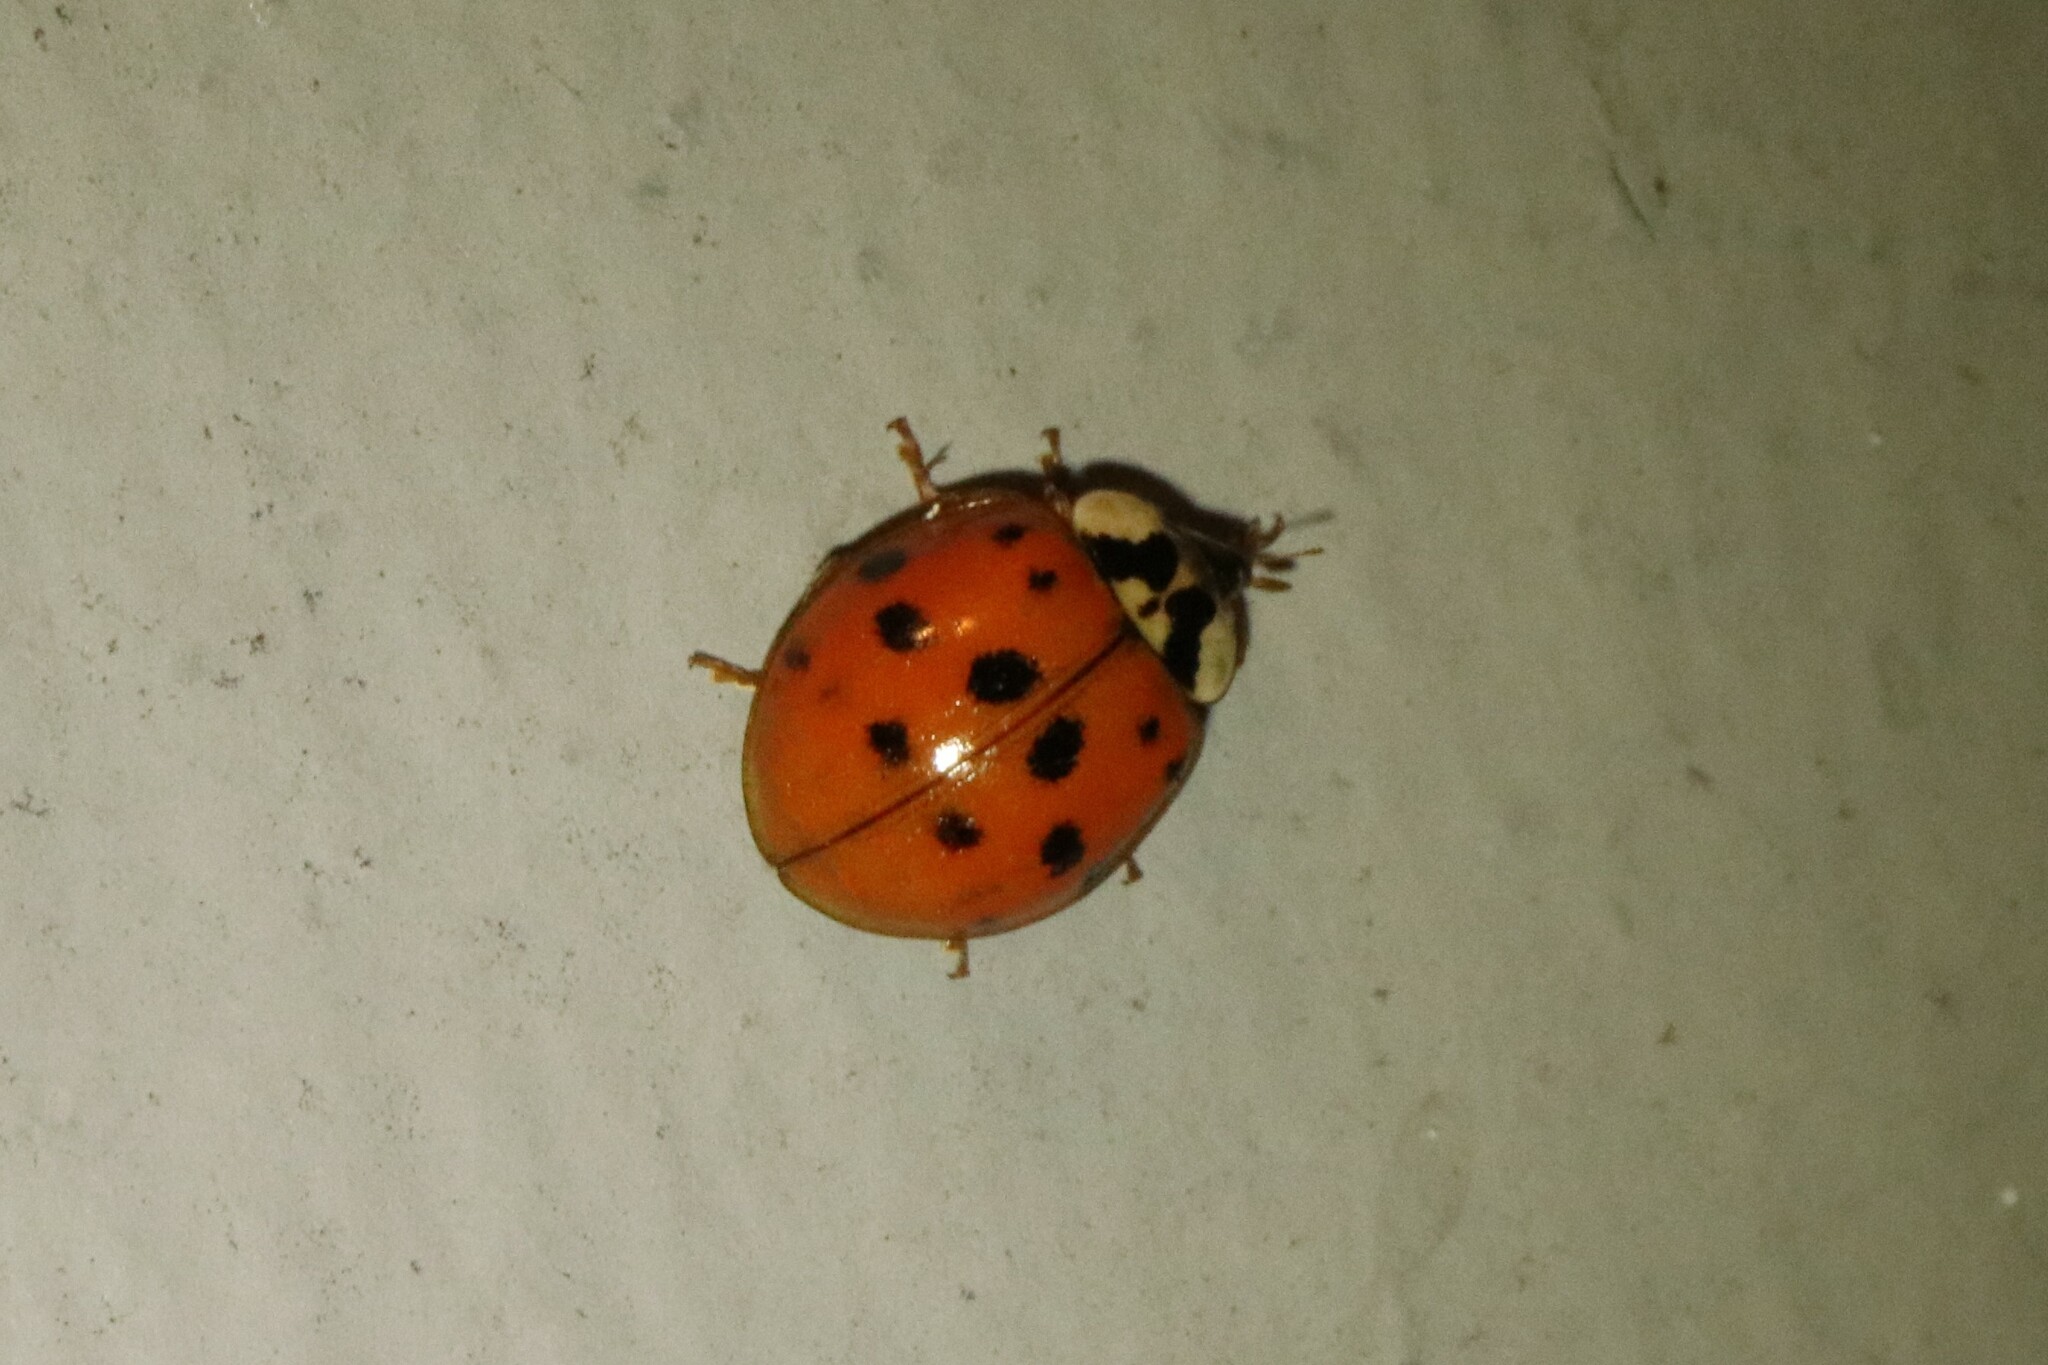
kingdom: Animalia
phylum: Arthropoda
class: Insecta
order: Coleoptera
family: Coccinellidae
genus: Harmonia
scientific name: Harmonia axyridis
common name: Harlequin ladybird
